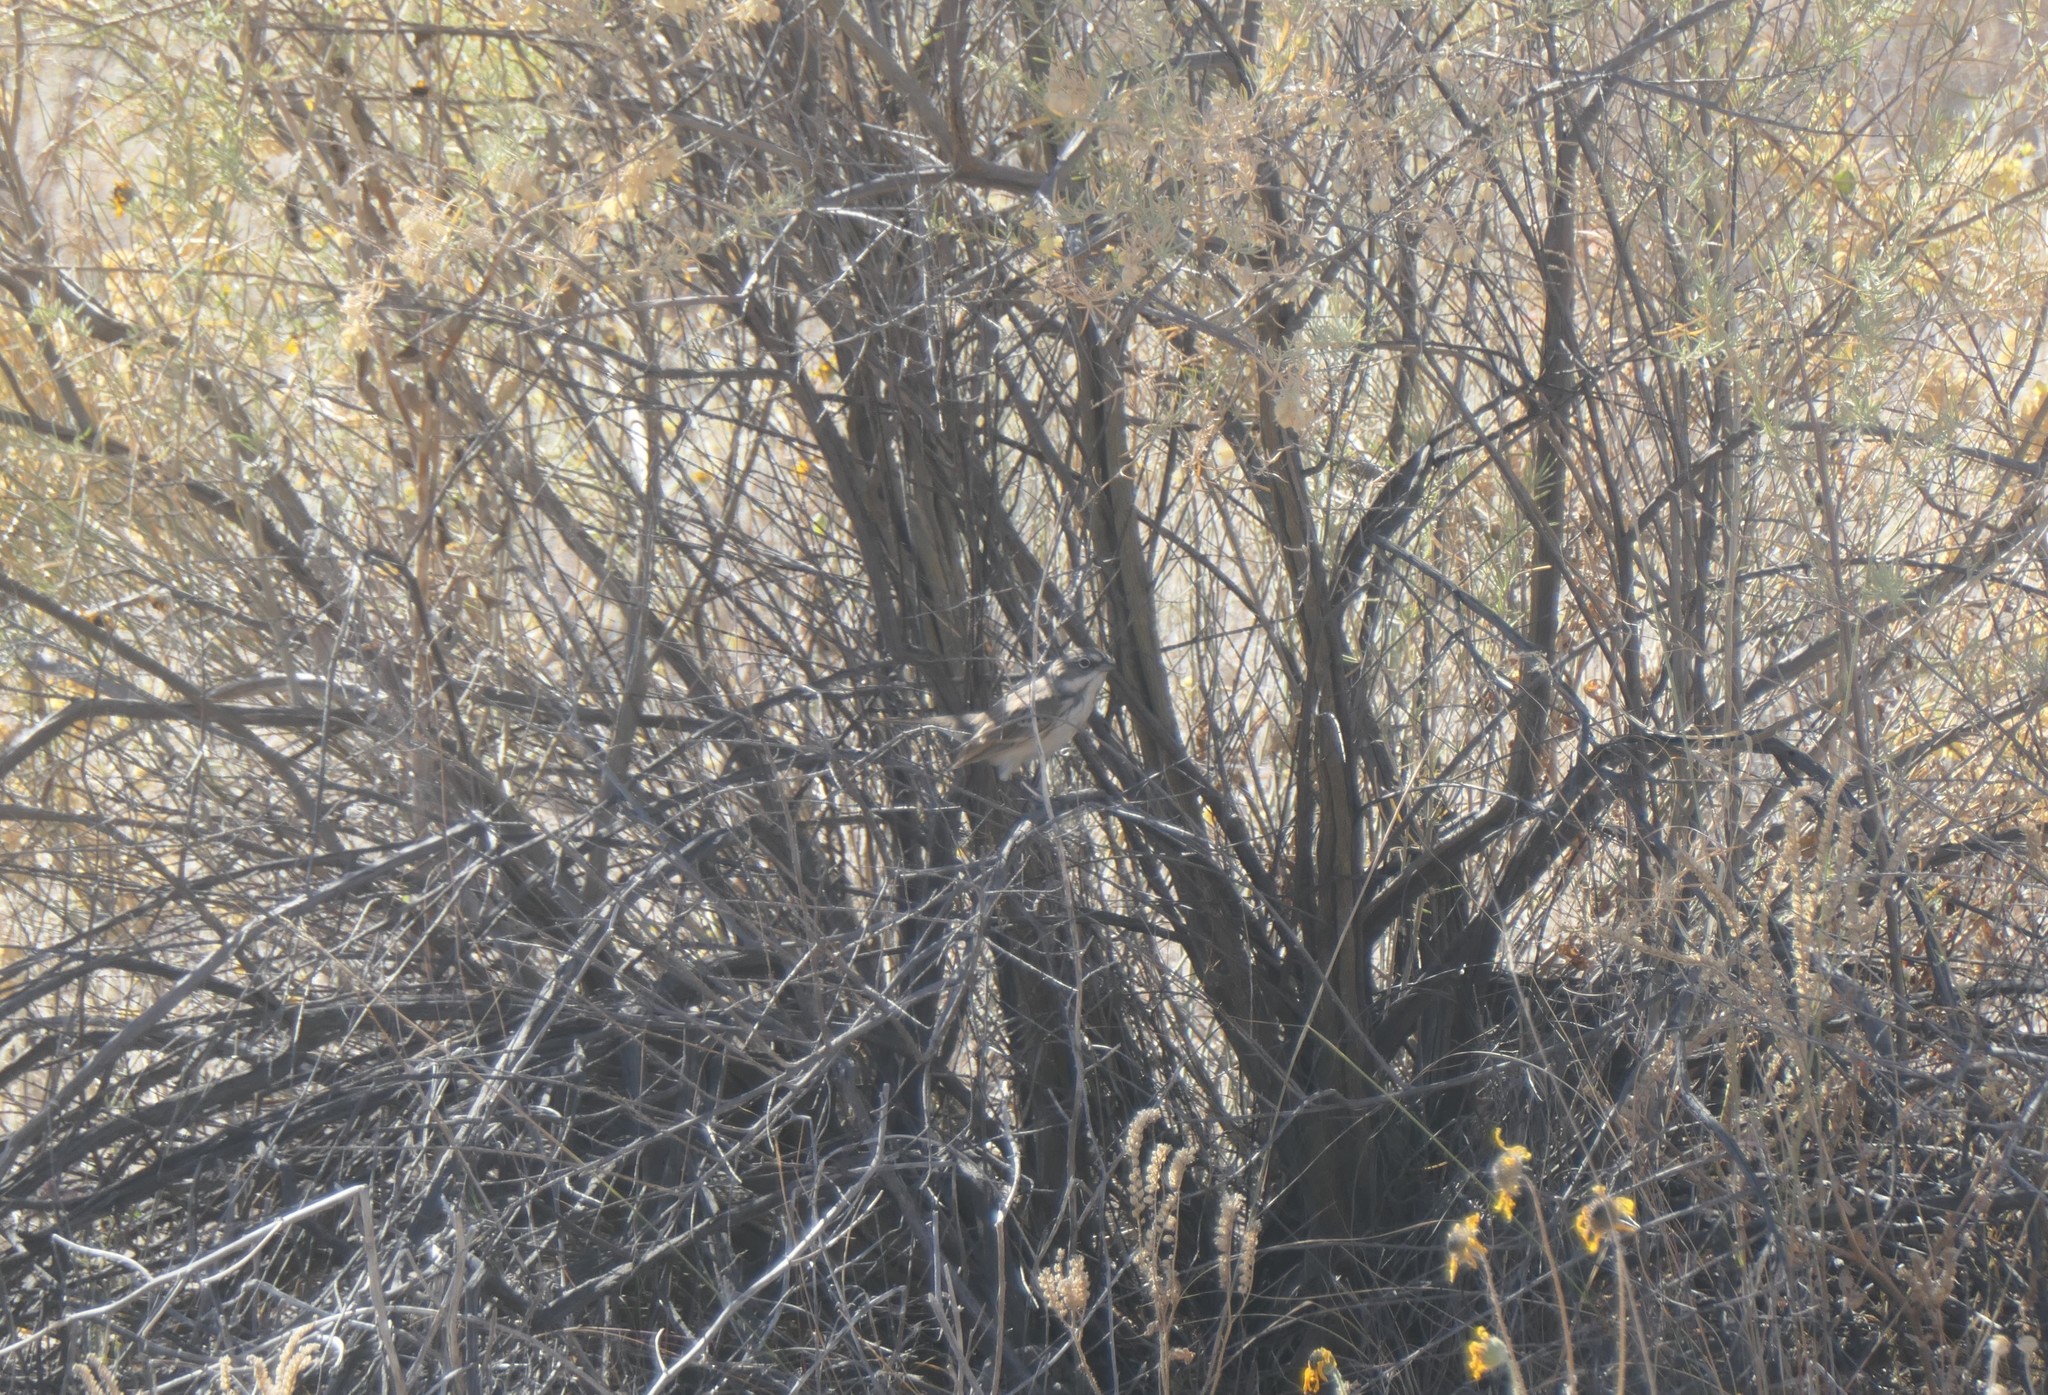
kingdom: Animalia
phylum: Chordata
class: Aves
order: Passeriformes
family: Passerellidae
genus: Artemisiospiza
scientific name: Artemisiospiza nevadensis
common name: Sagebrush sparrow
